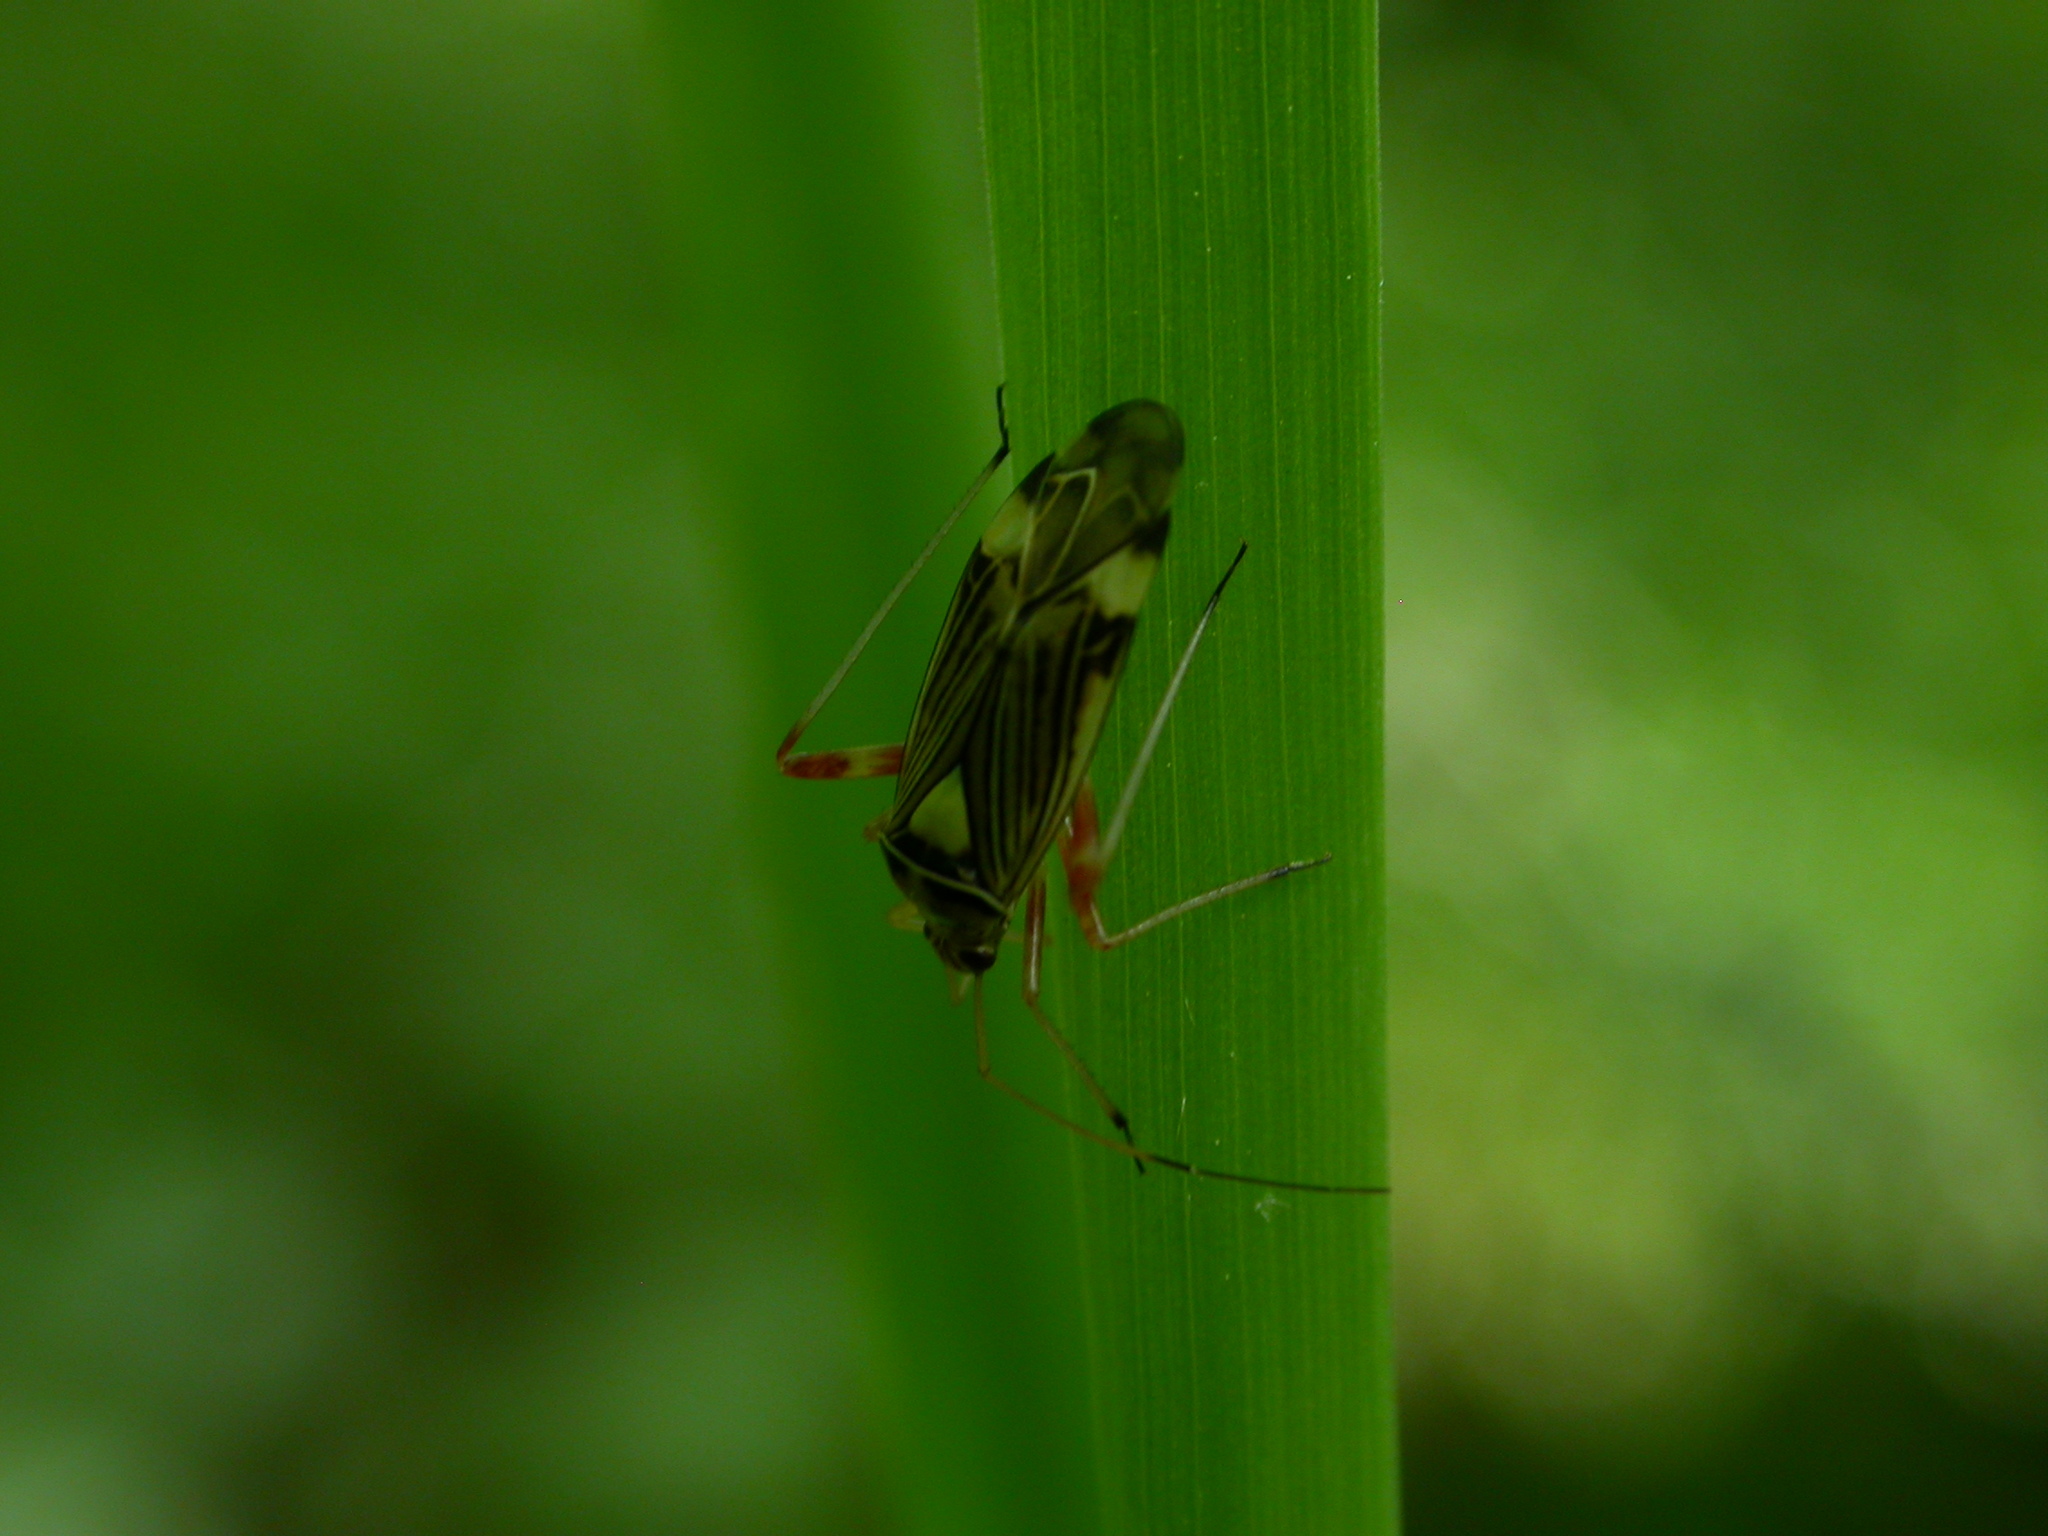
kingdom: Animalia
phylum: Arthropoda
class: Insecta
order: Hemiptera
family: Miridae
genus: Rhabdomiris
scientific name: Rhabdomiris striatellus
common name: Plant bug
